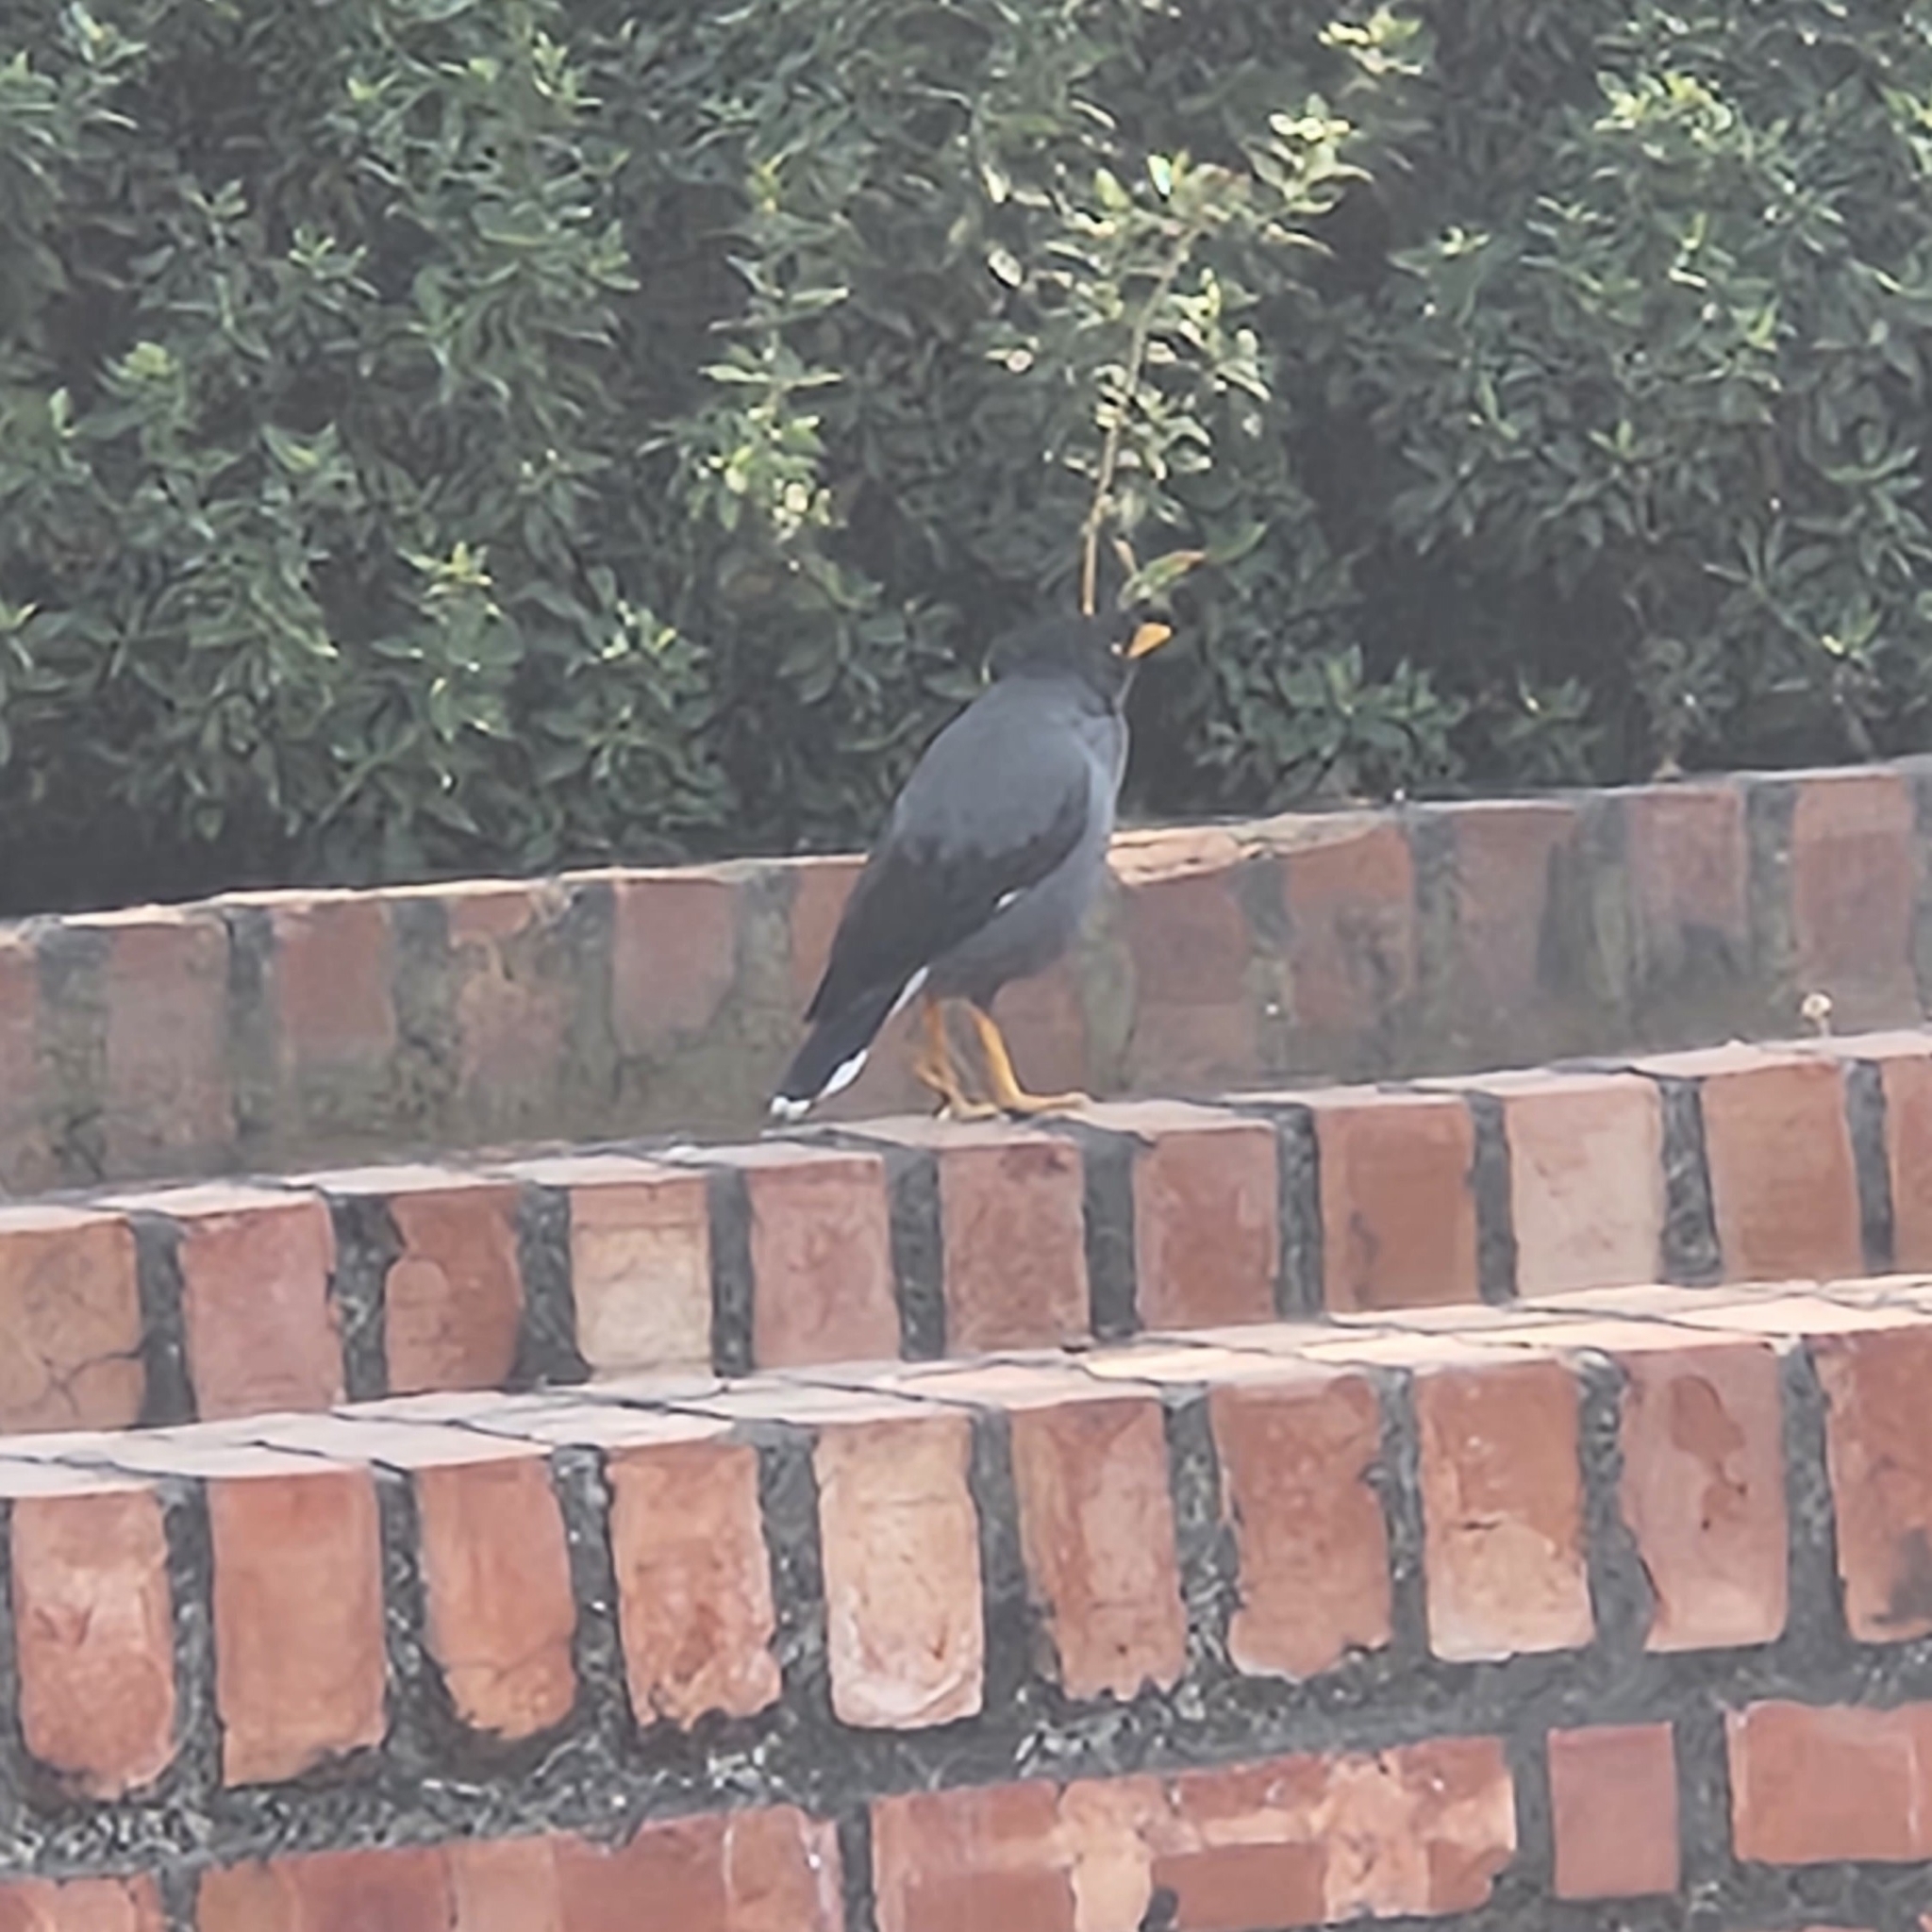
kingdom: Animalia
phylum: Chordata
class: Aves
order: Passeriformes
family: Sturnidae
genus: Acridotheres
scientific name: Acridotheres javanicus
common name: Javan myna
